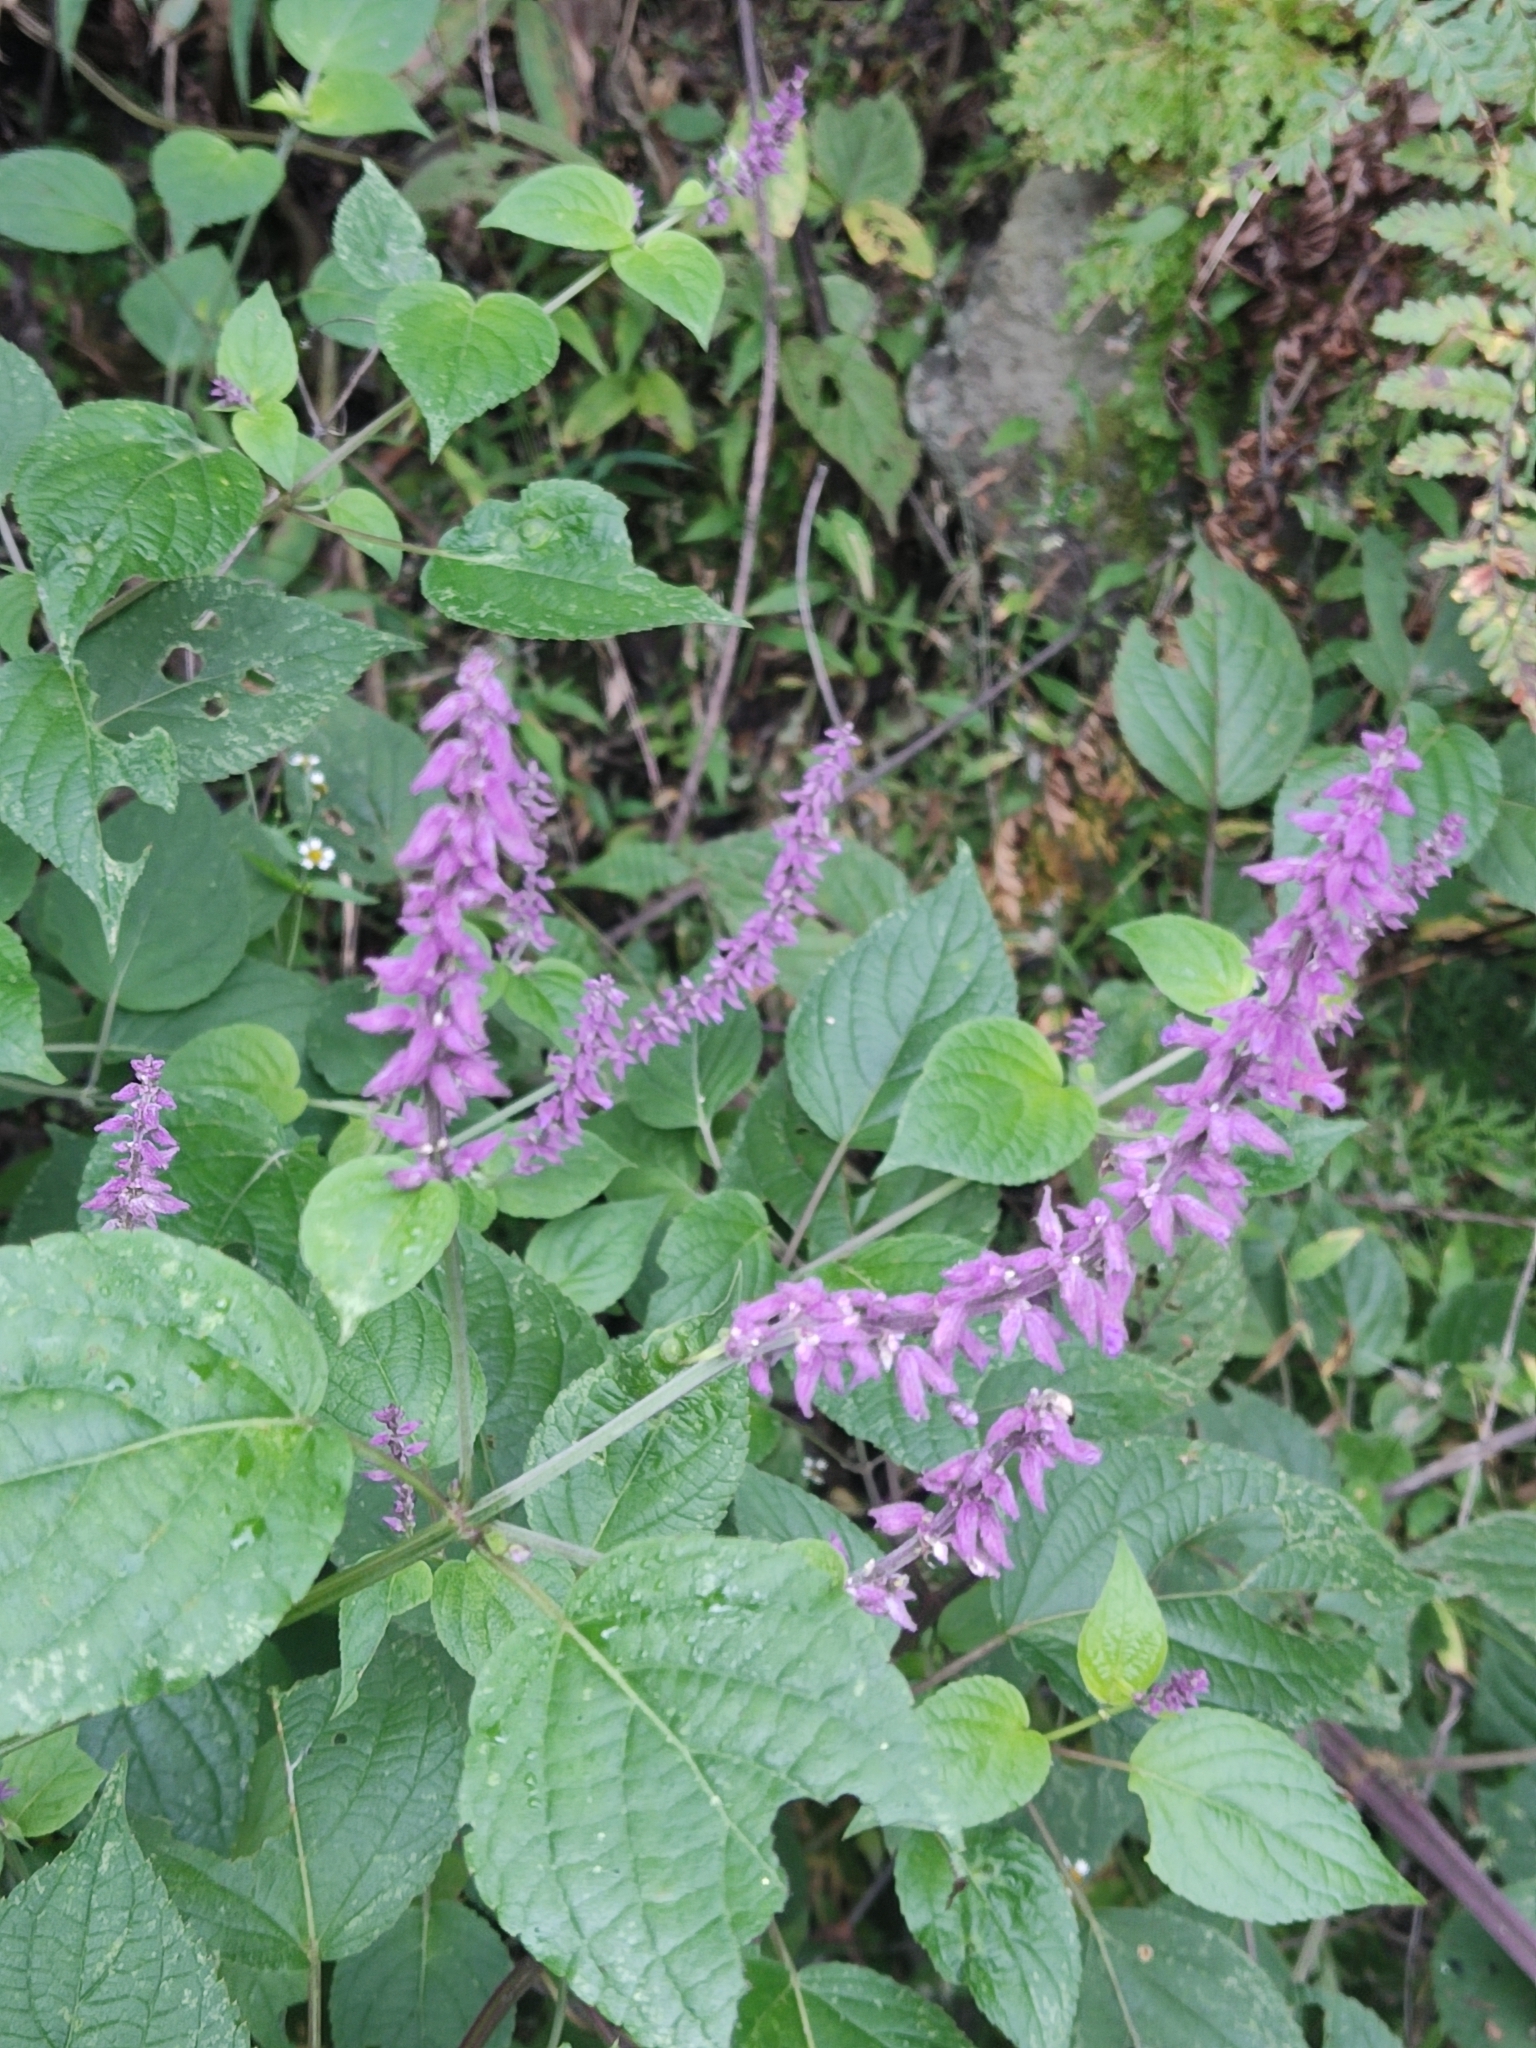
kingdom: Plantae
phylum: Tracheophyta
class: Magnoliopsida
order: Lamiales
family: Lamiaceae
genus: Salvia
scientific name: Salvia purpurea
